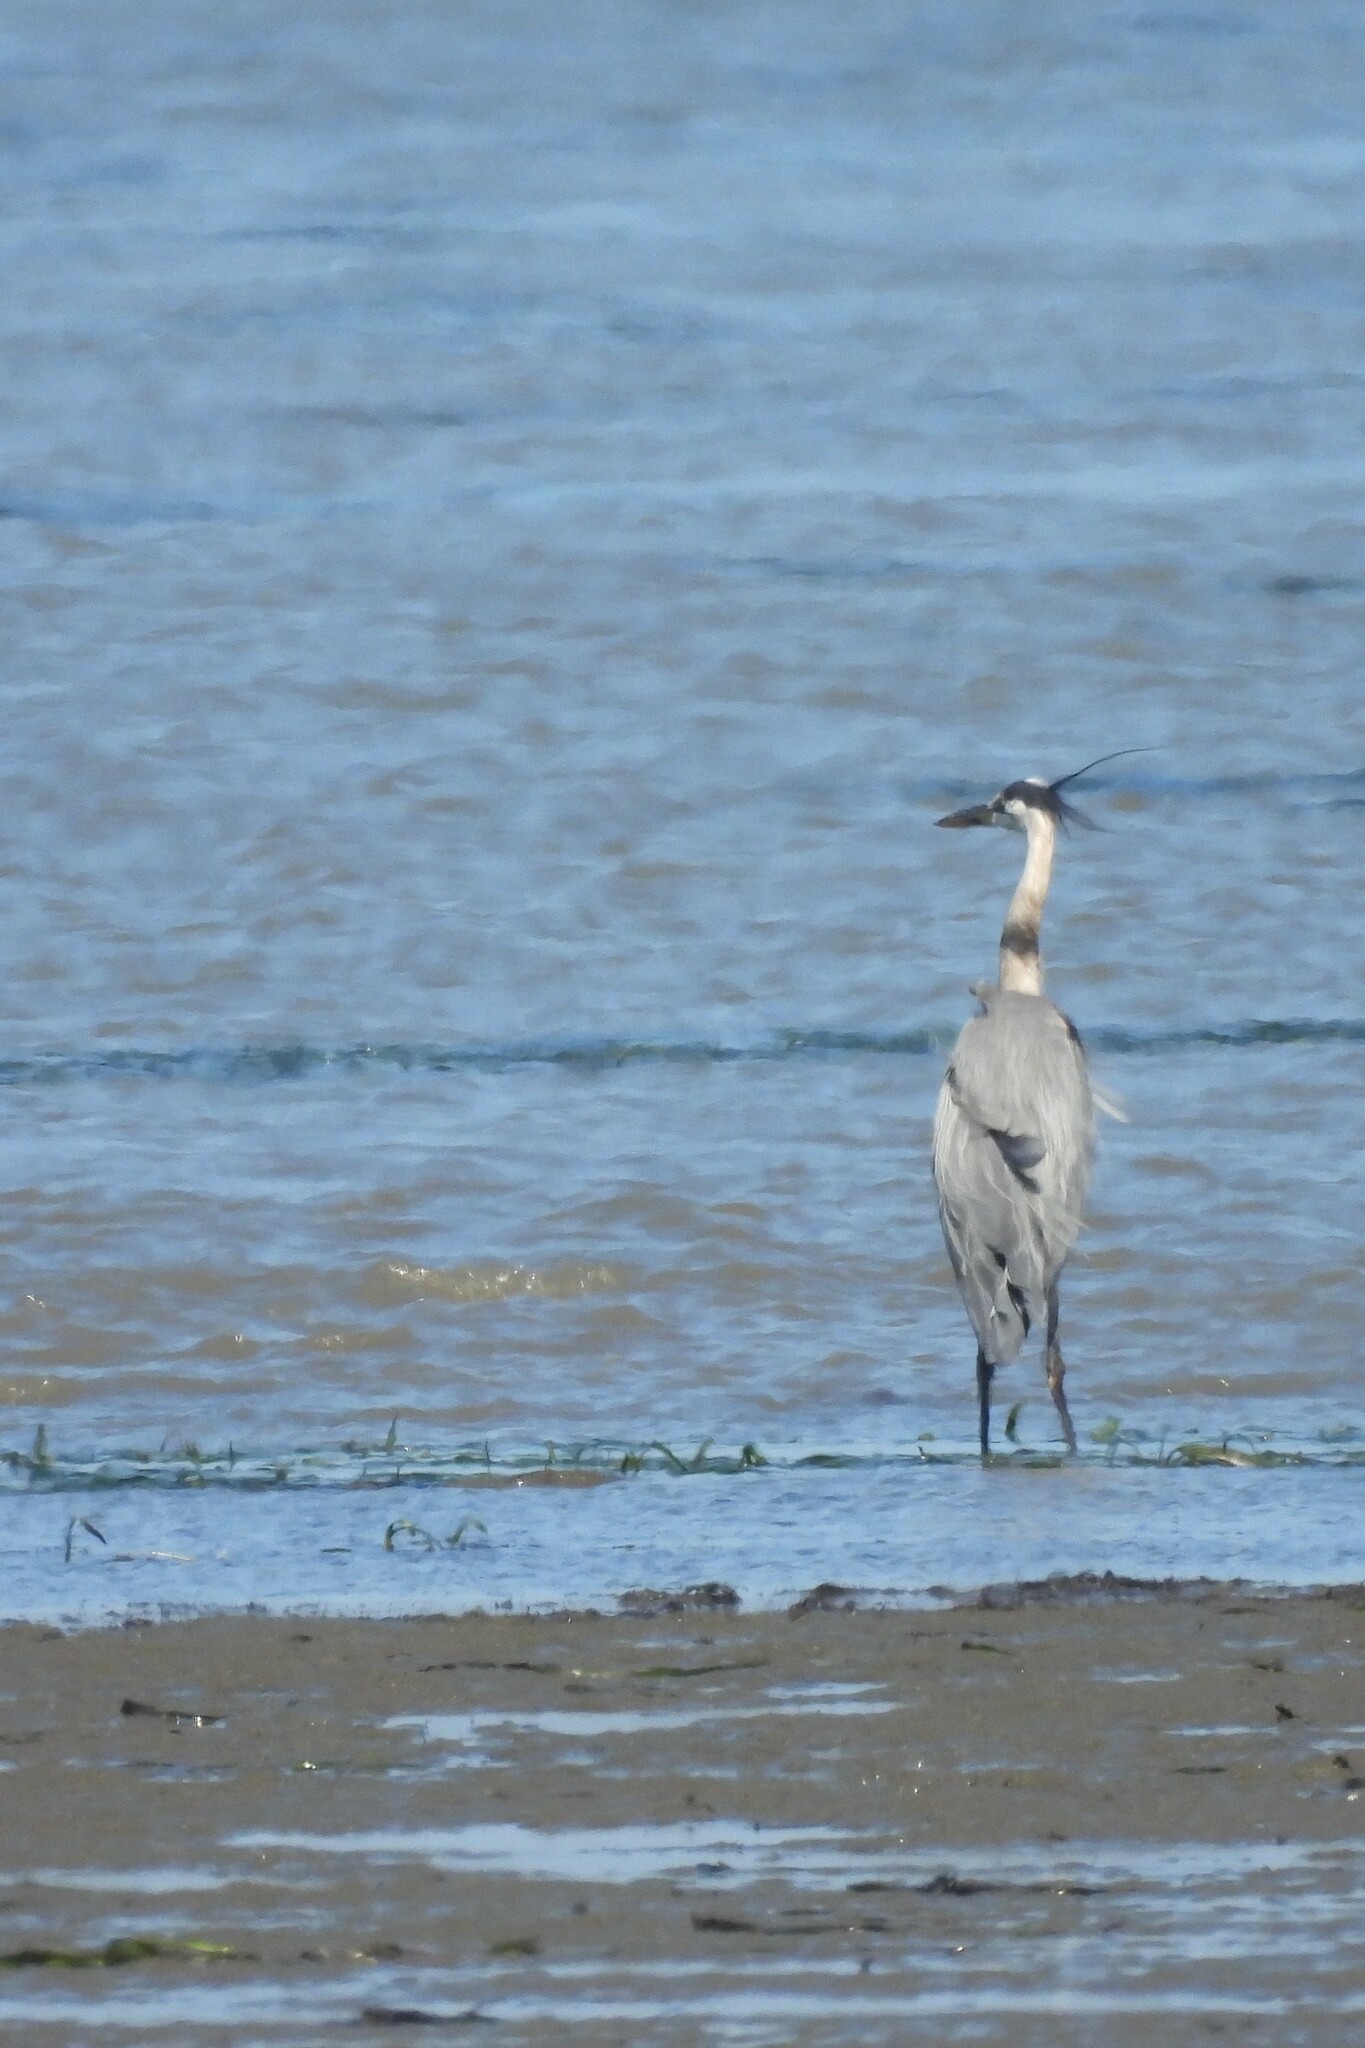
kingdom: Animalia
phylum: Chordata
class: Aves
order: Pelecaniformes
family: Ardeidae
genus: Ardea
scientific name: Ardea herodias
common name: Great blue heron
